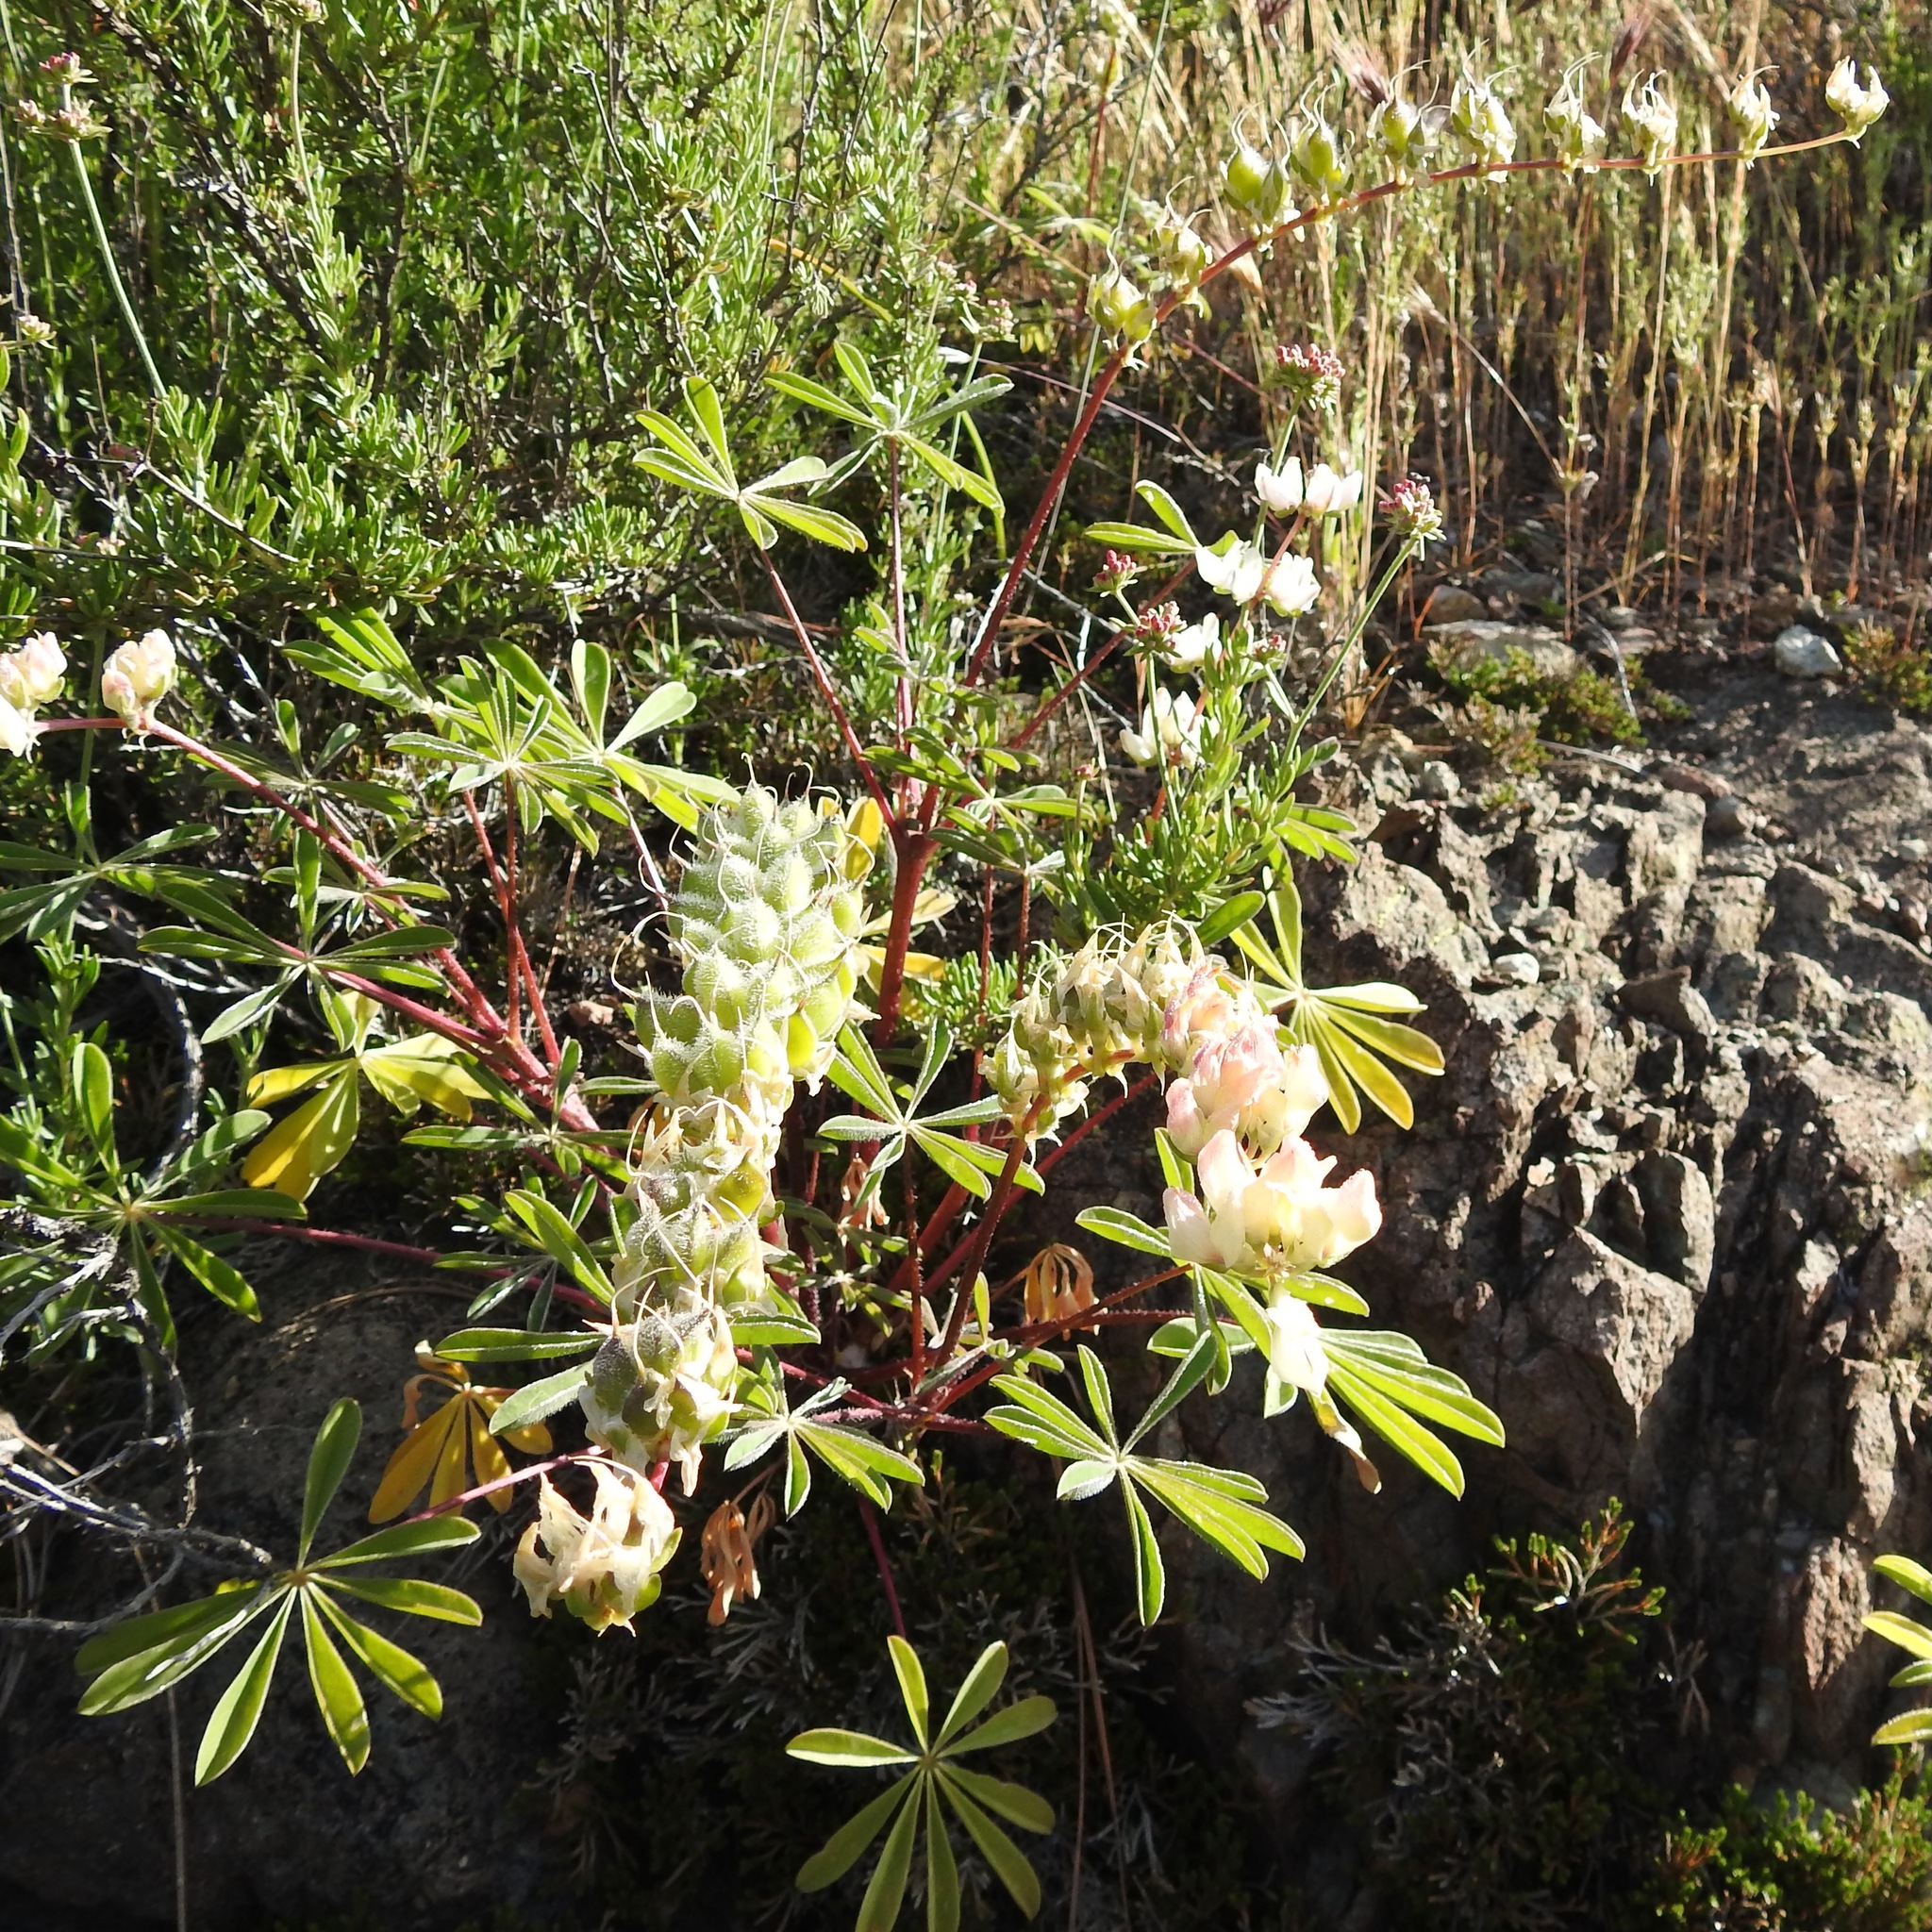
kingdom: Plantae
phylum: Tracheophyta
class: Magnoliopsida
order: Fabales
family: Fabaceae
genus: Lupinus
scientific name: Lupinus microcarpus
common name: Chick lupine
